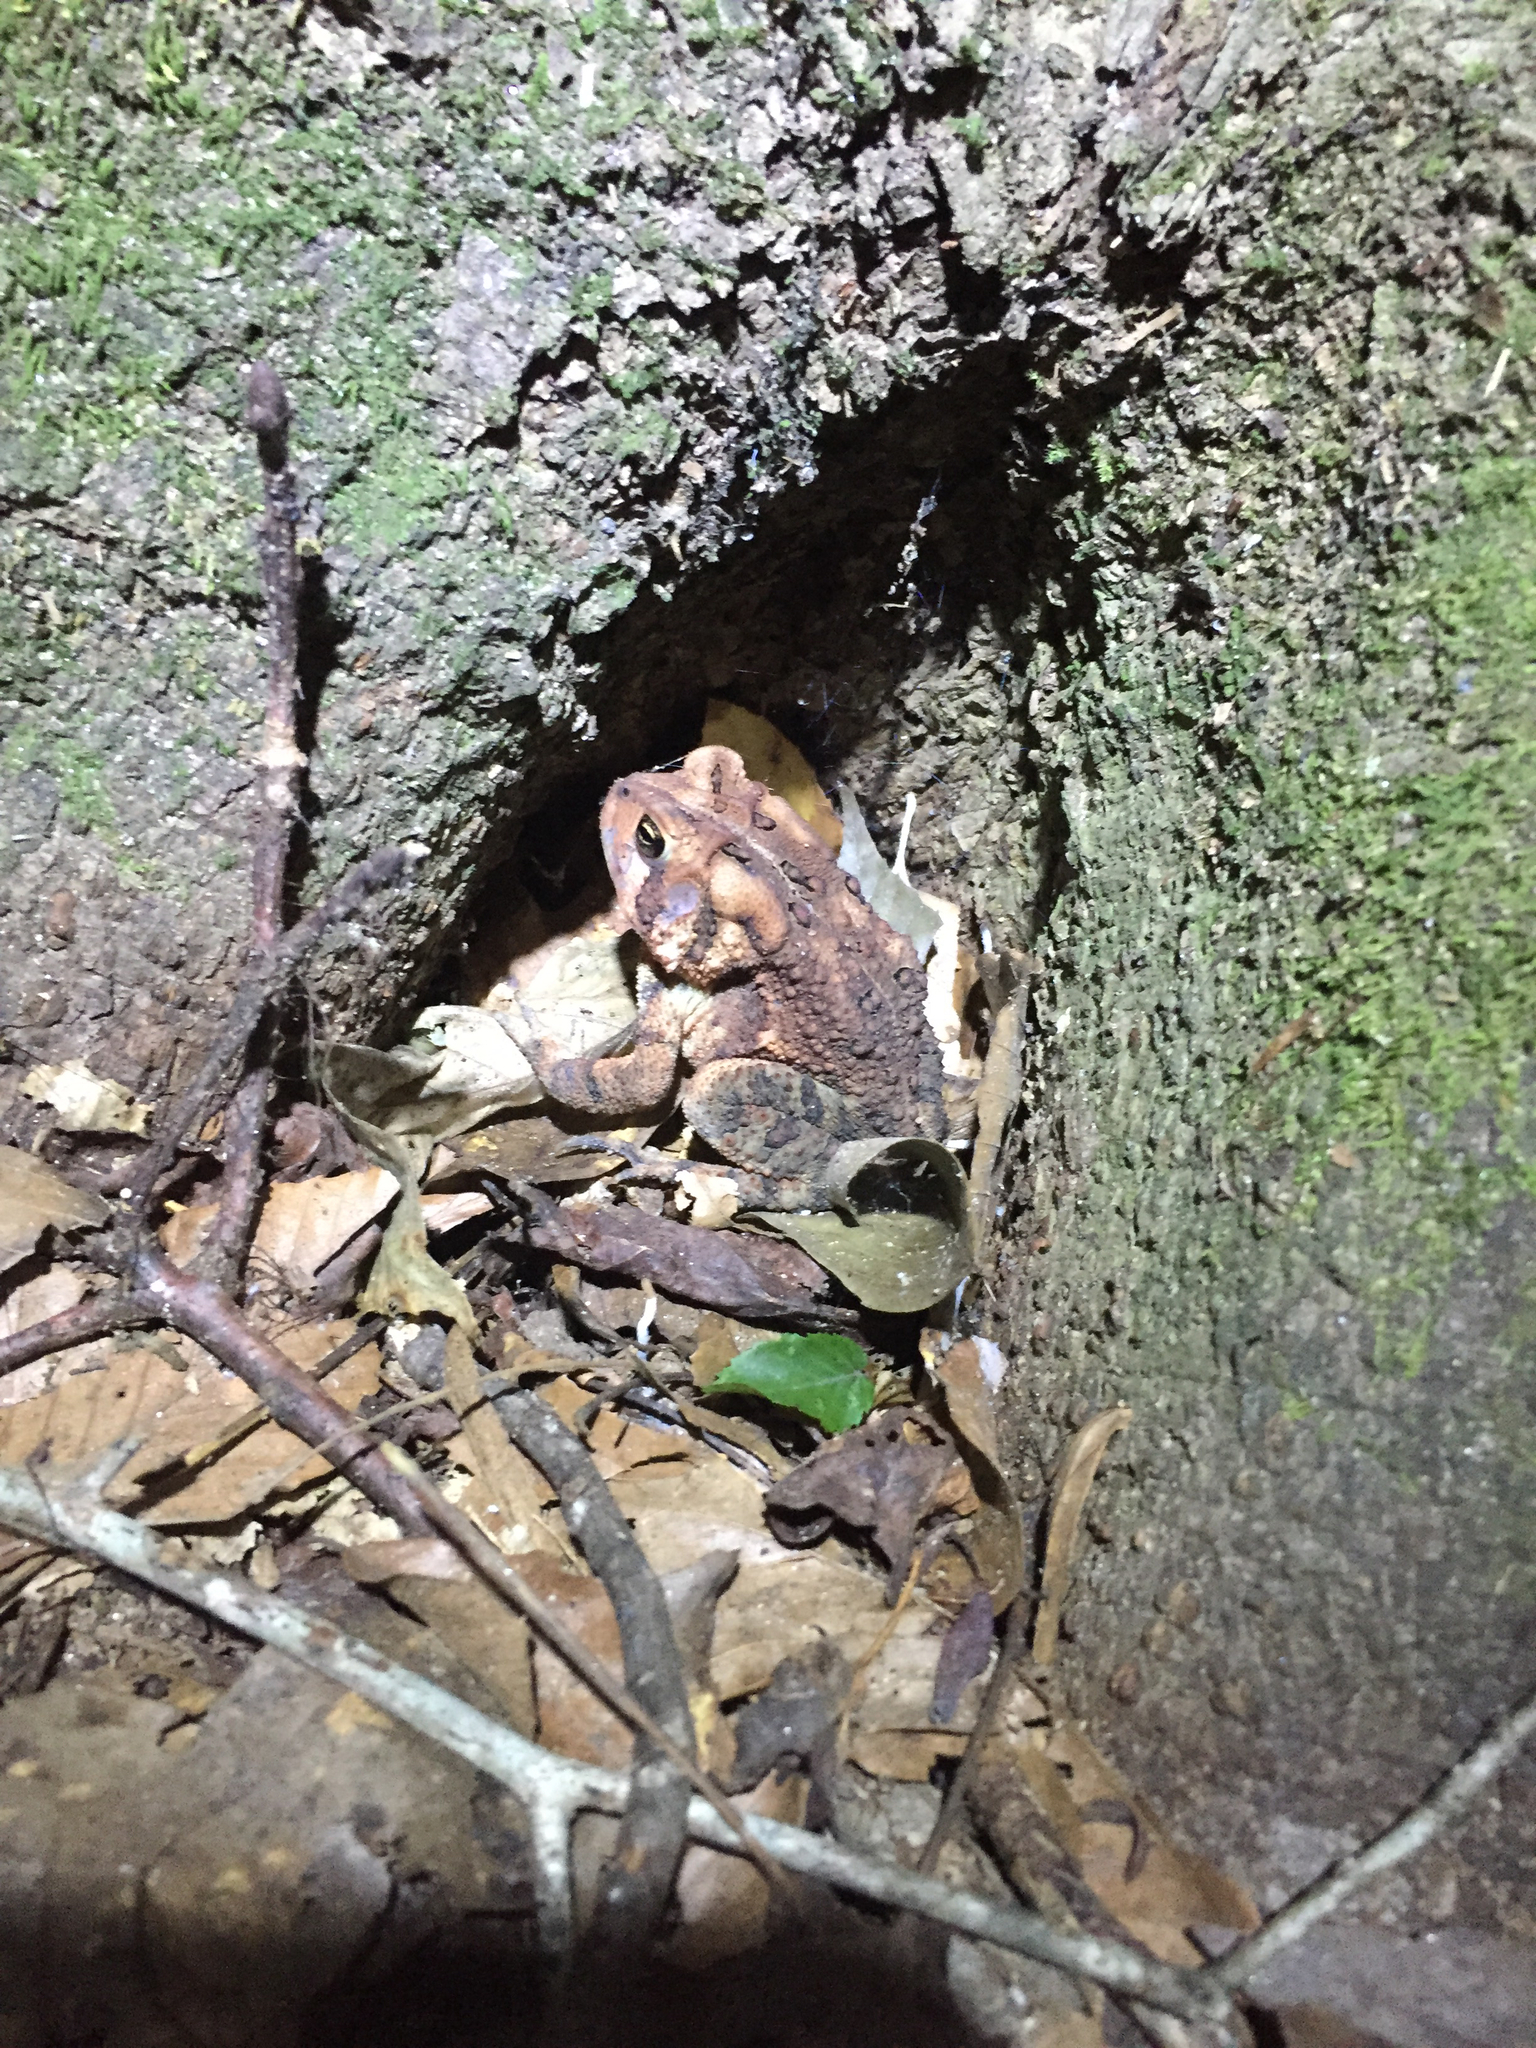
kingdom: Animalia
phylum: Chordata
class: Amphibia
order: Anura
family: Bufonidae
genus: Anaxyrus
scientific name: Anaxyrus americanus
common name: American toad
